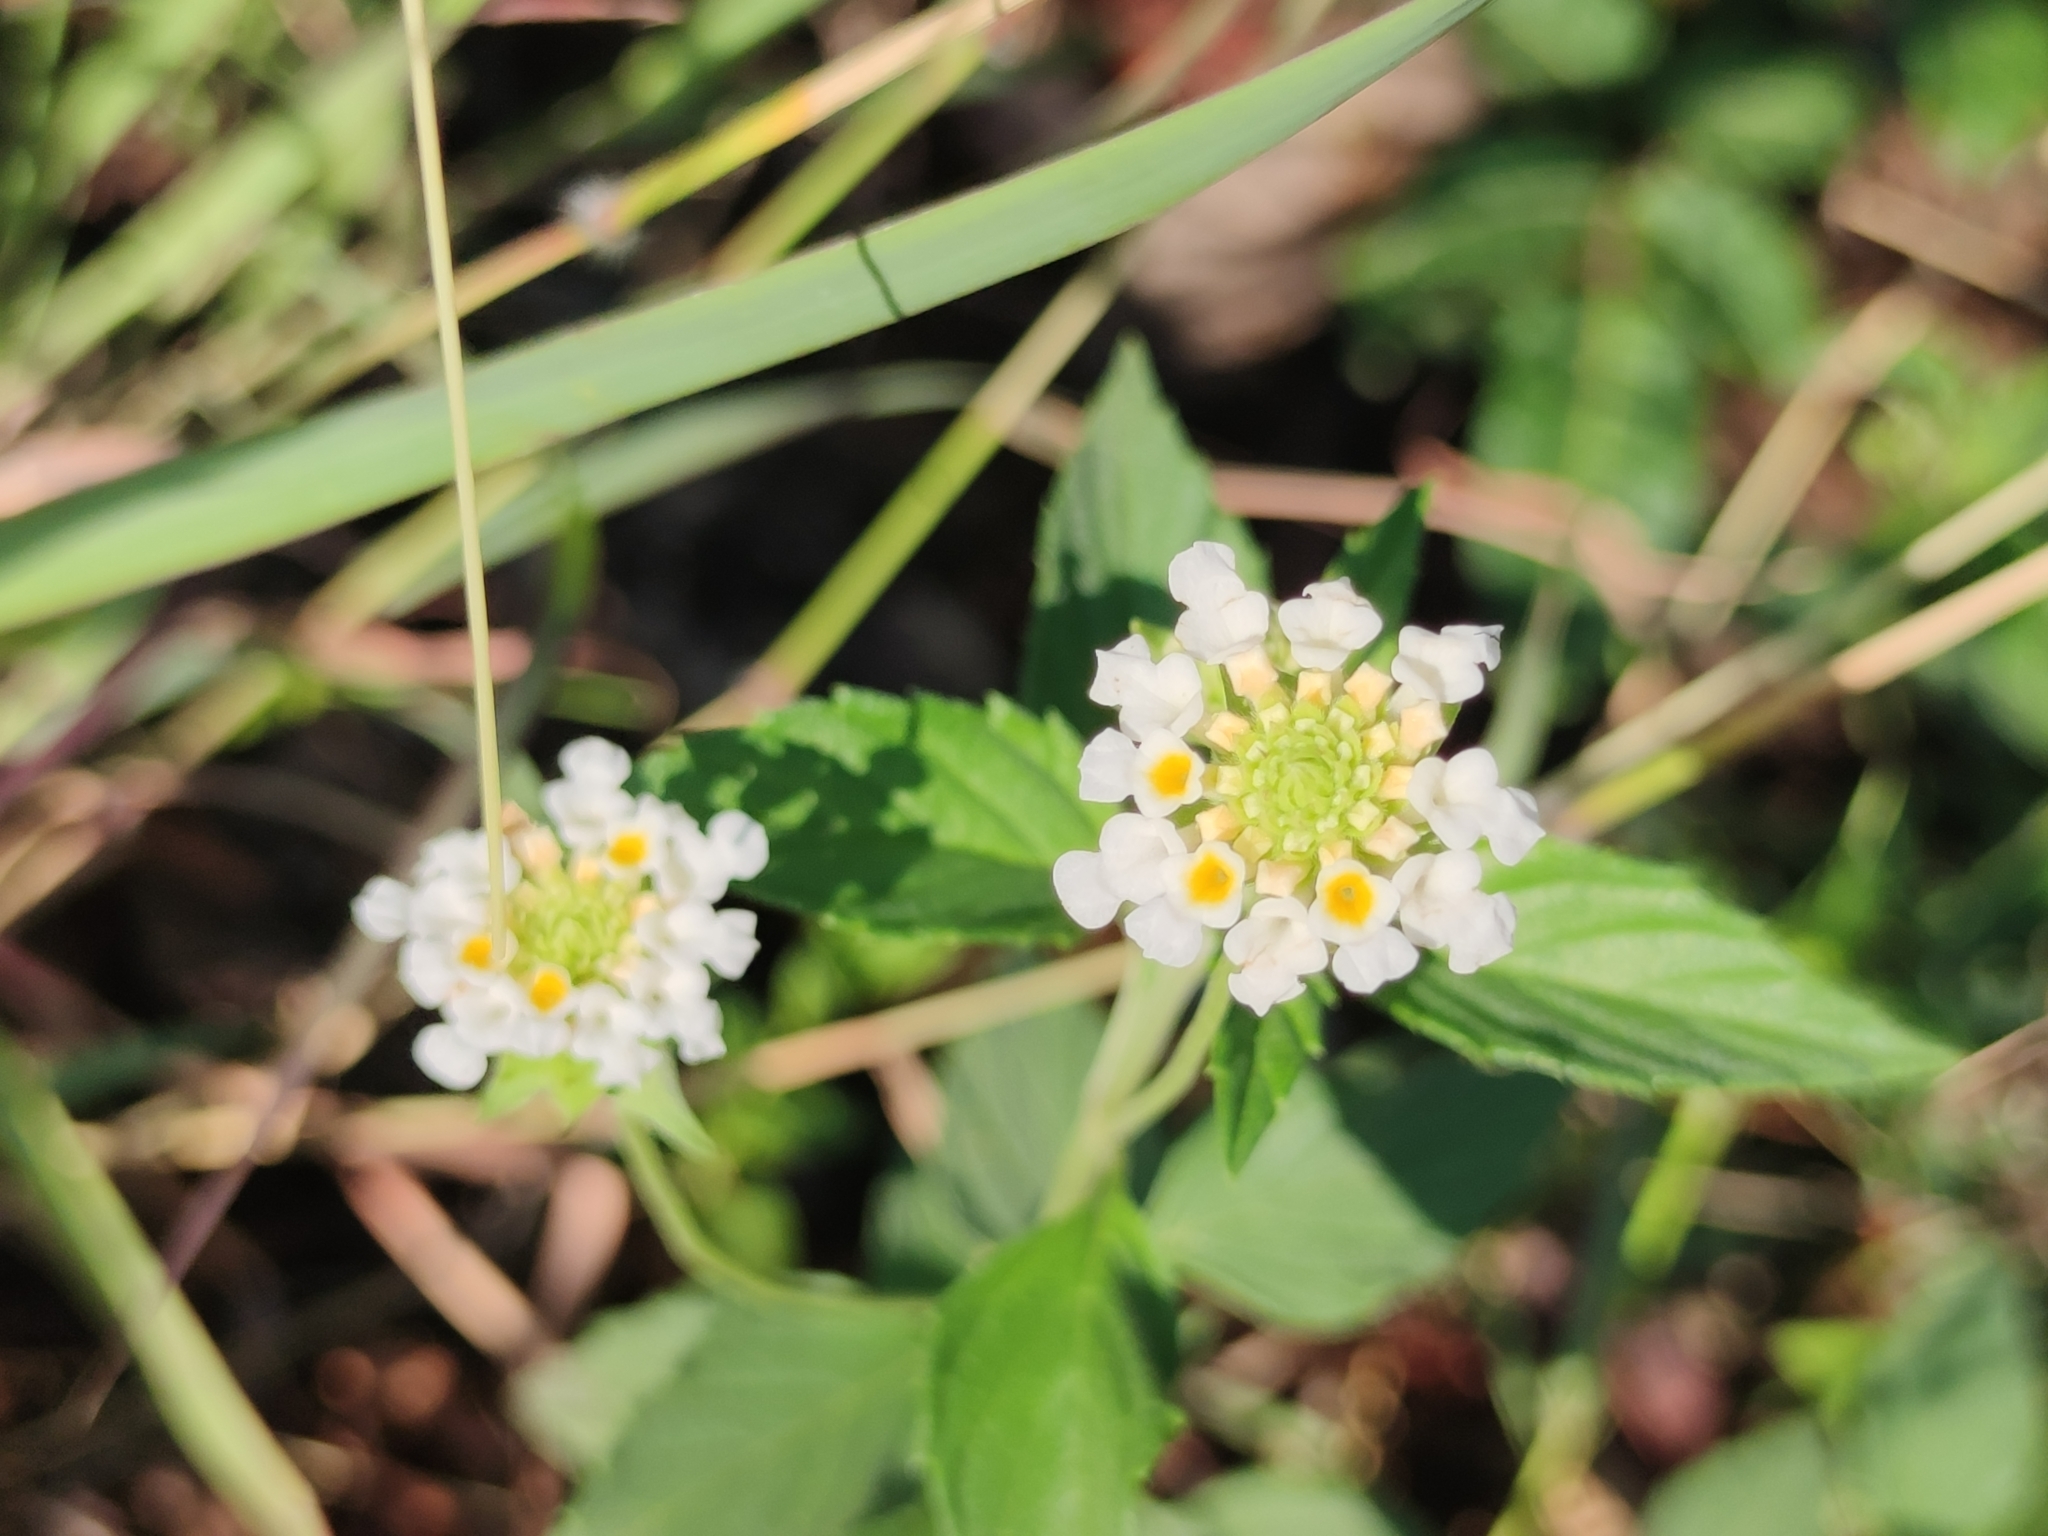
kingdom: Plantae
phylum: Tracheophyta
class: Magnoliopsida
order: Lamiales
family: Verbenaceae
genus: Lantana
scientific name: Lantana achyranthifolia
